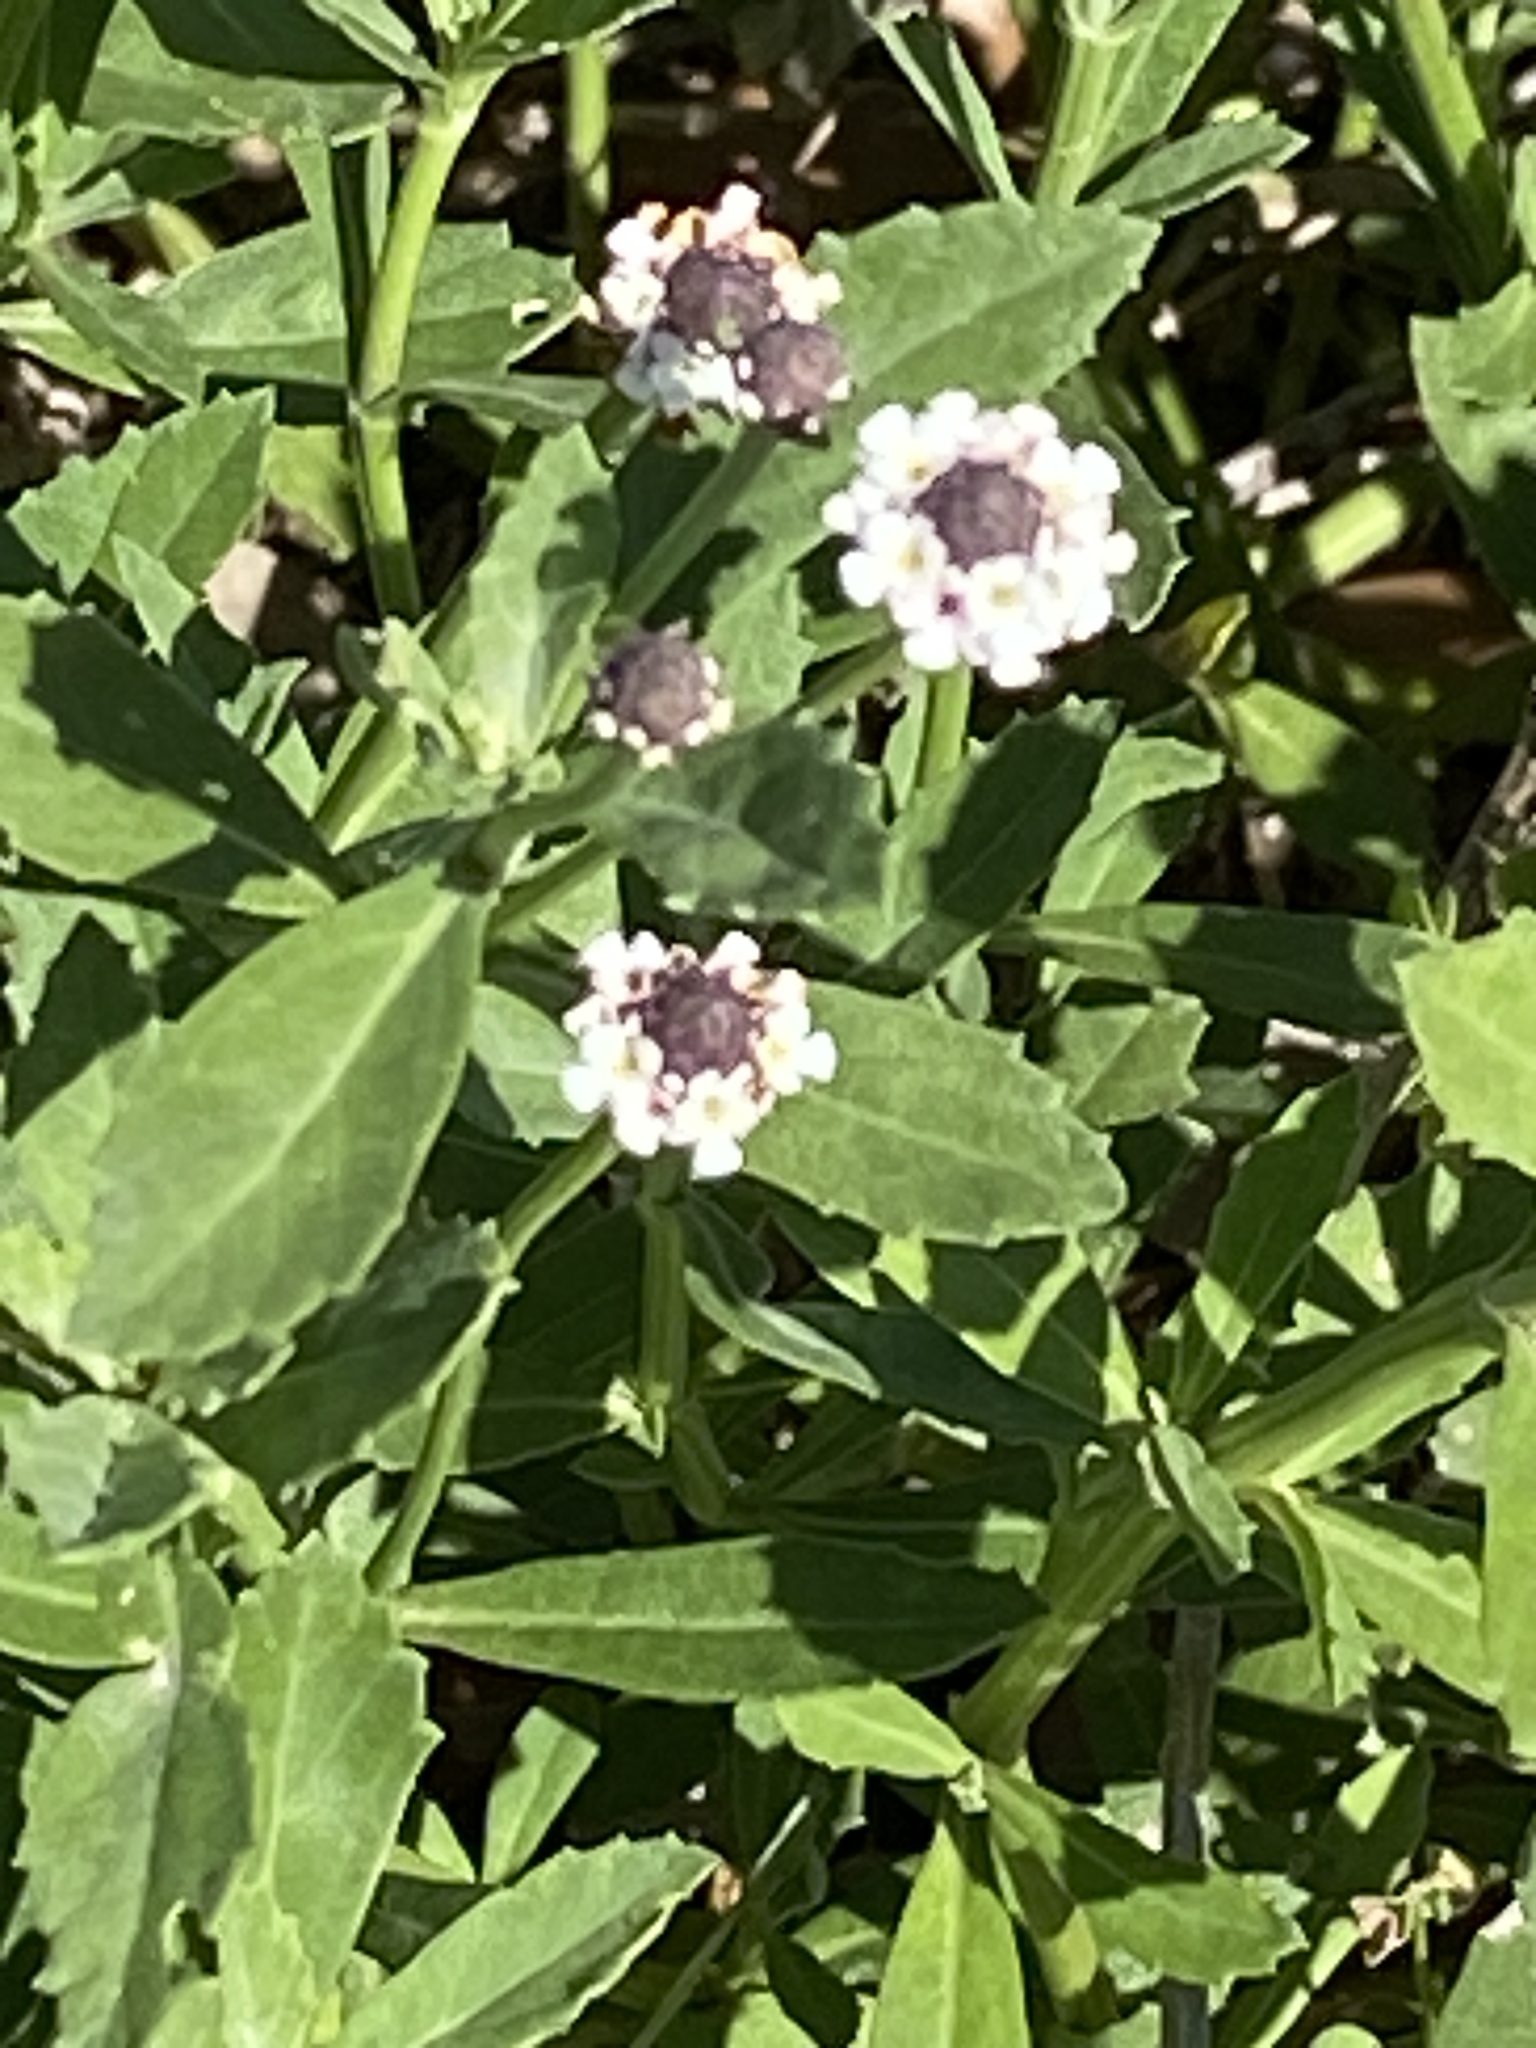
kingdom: Plantae
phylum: Tracheophyta
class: Magnoliopsida
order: Lamiales
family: Verbenaceae
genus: Phyla
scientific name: Phyla nodiflora
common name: Frogfruit
